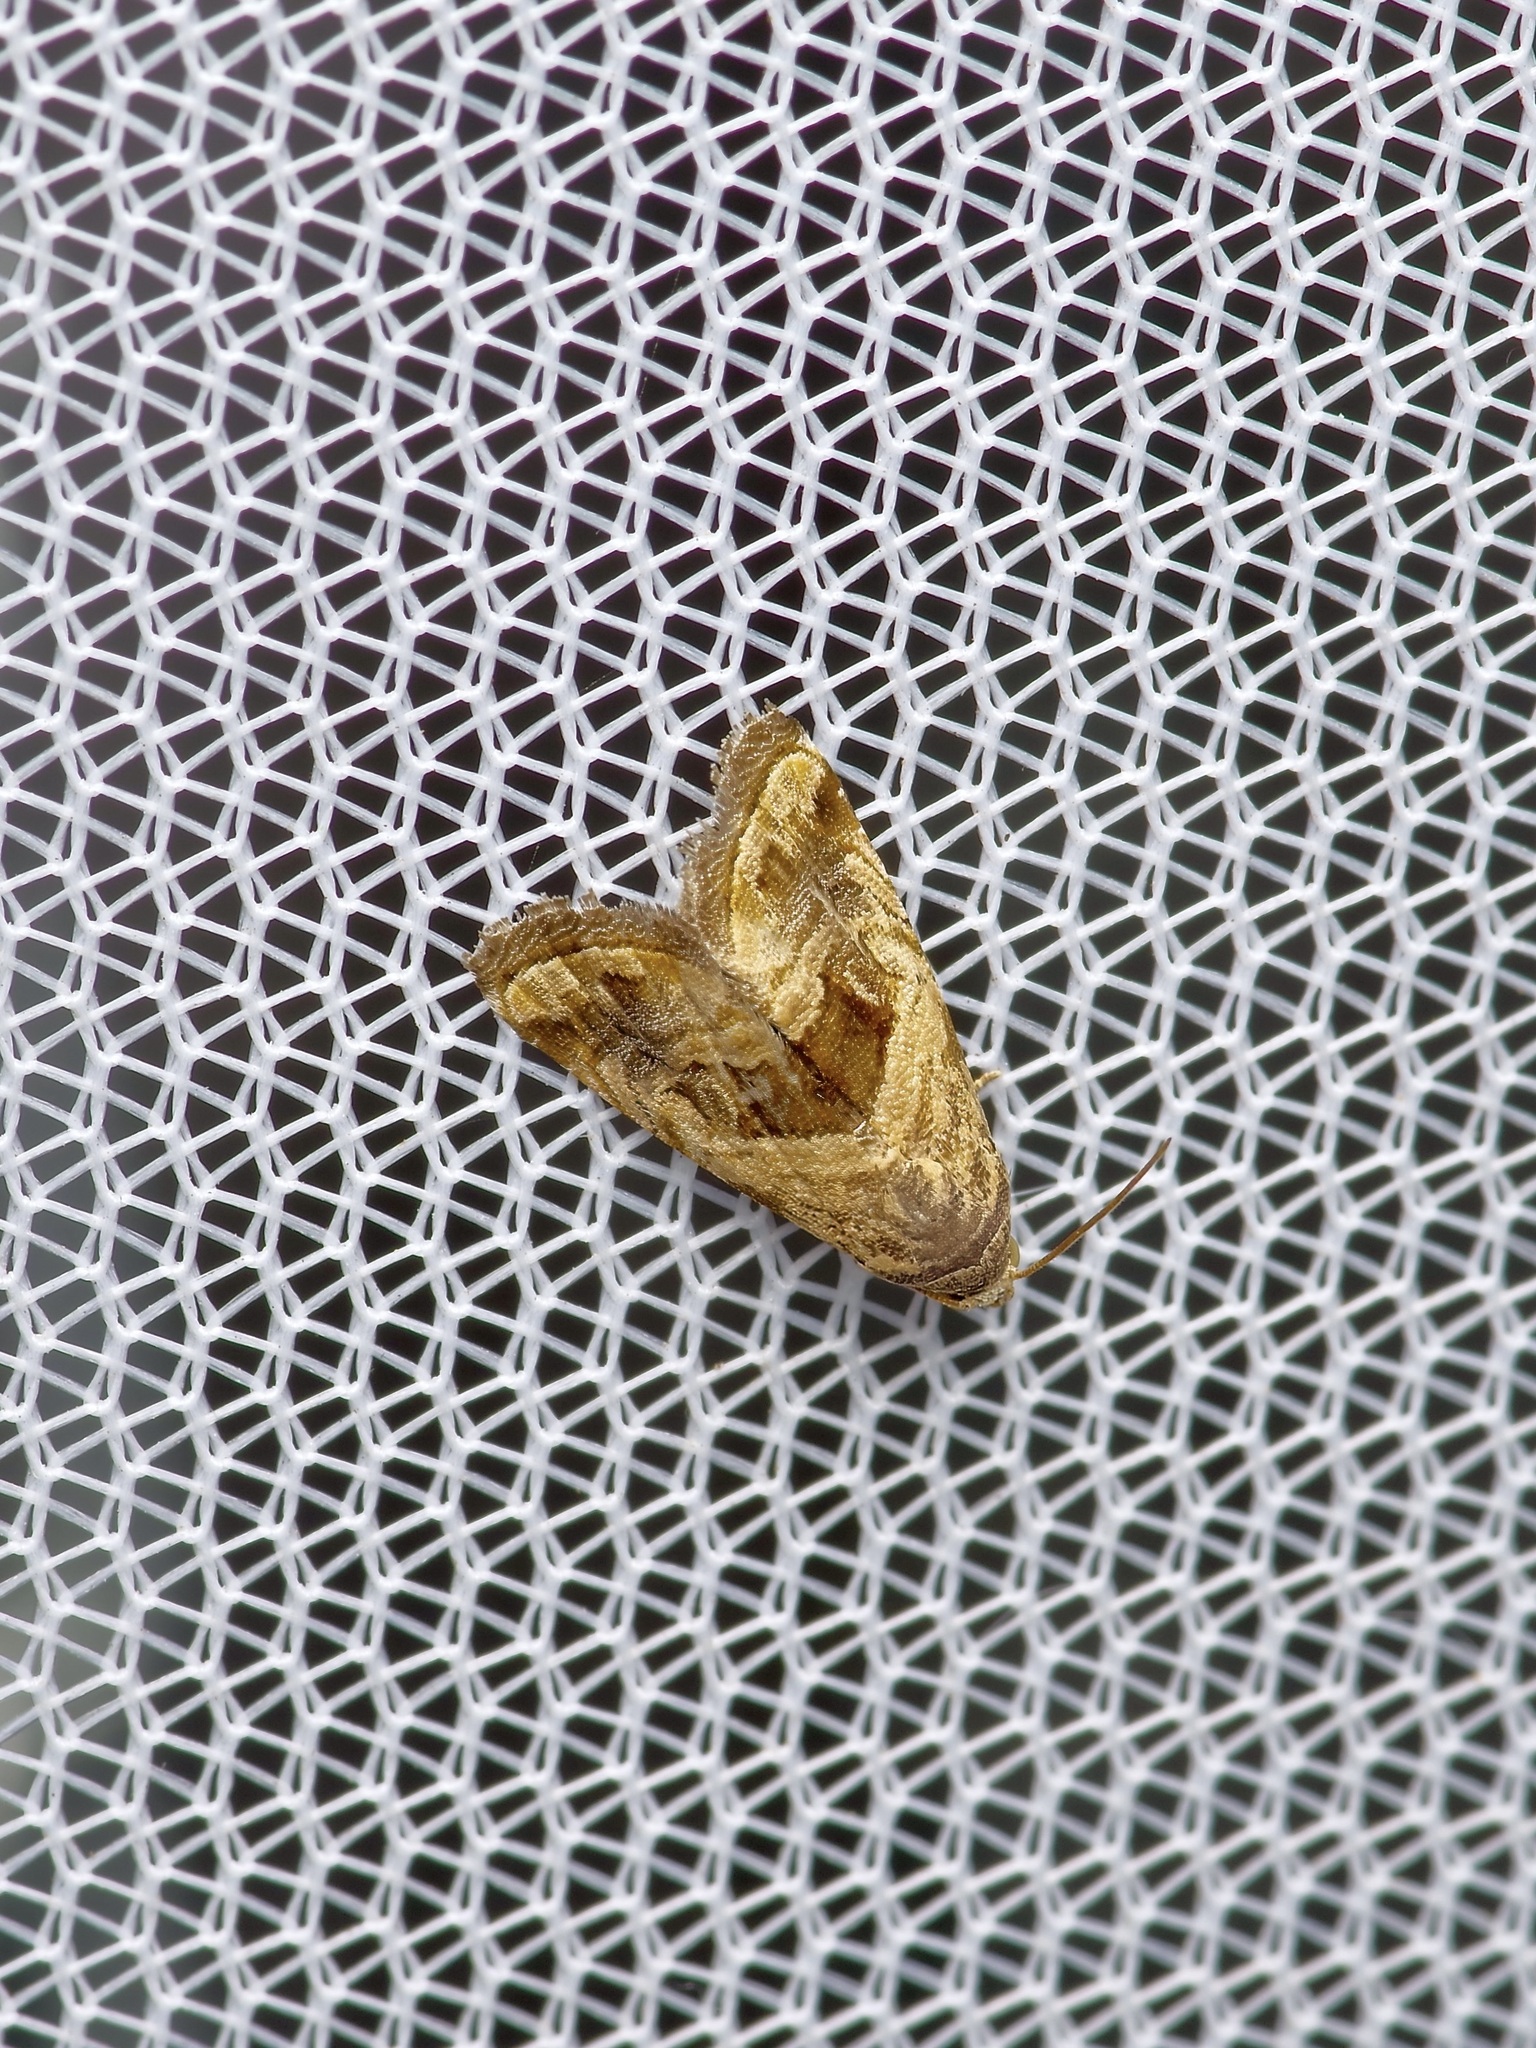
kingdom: Animalia
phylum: Arthropoda
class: Insecta
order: Lepidoptera
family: Noctuidae
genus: Tripudia
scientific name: Tripudia quadrifera
